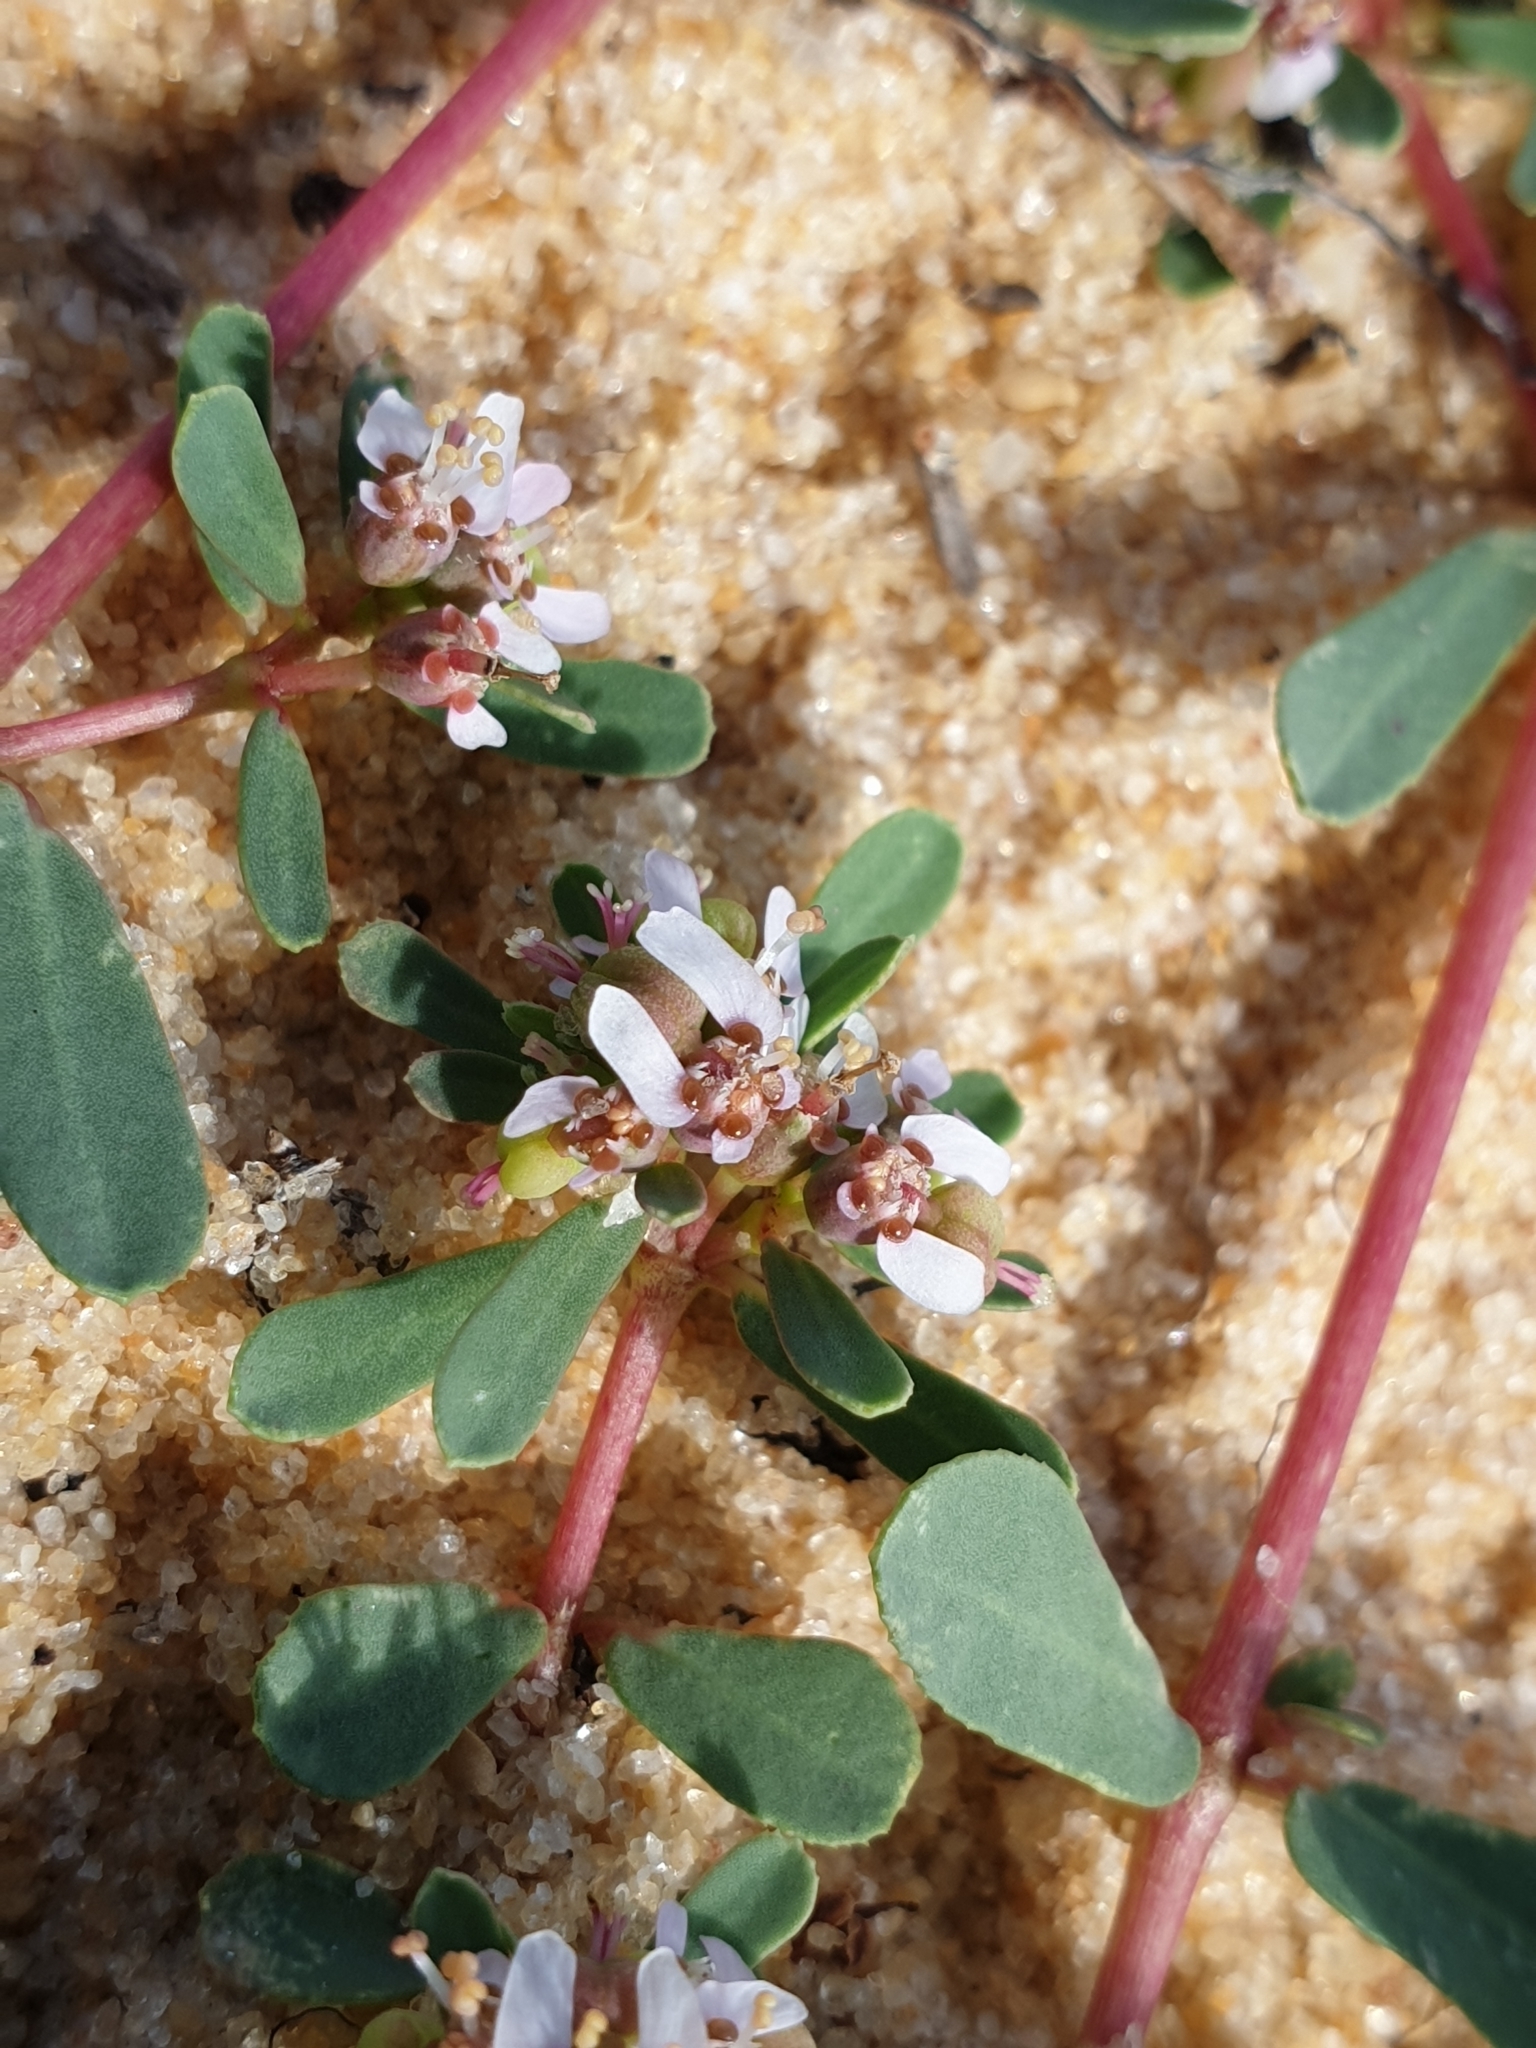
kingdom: Plantae
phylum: Tracheophyta
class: Magnoliopsida
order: Malpighiales
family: Euphorbiaceae
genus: Euphorbia
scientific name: Euphorbia rosea
